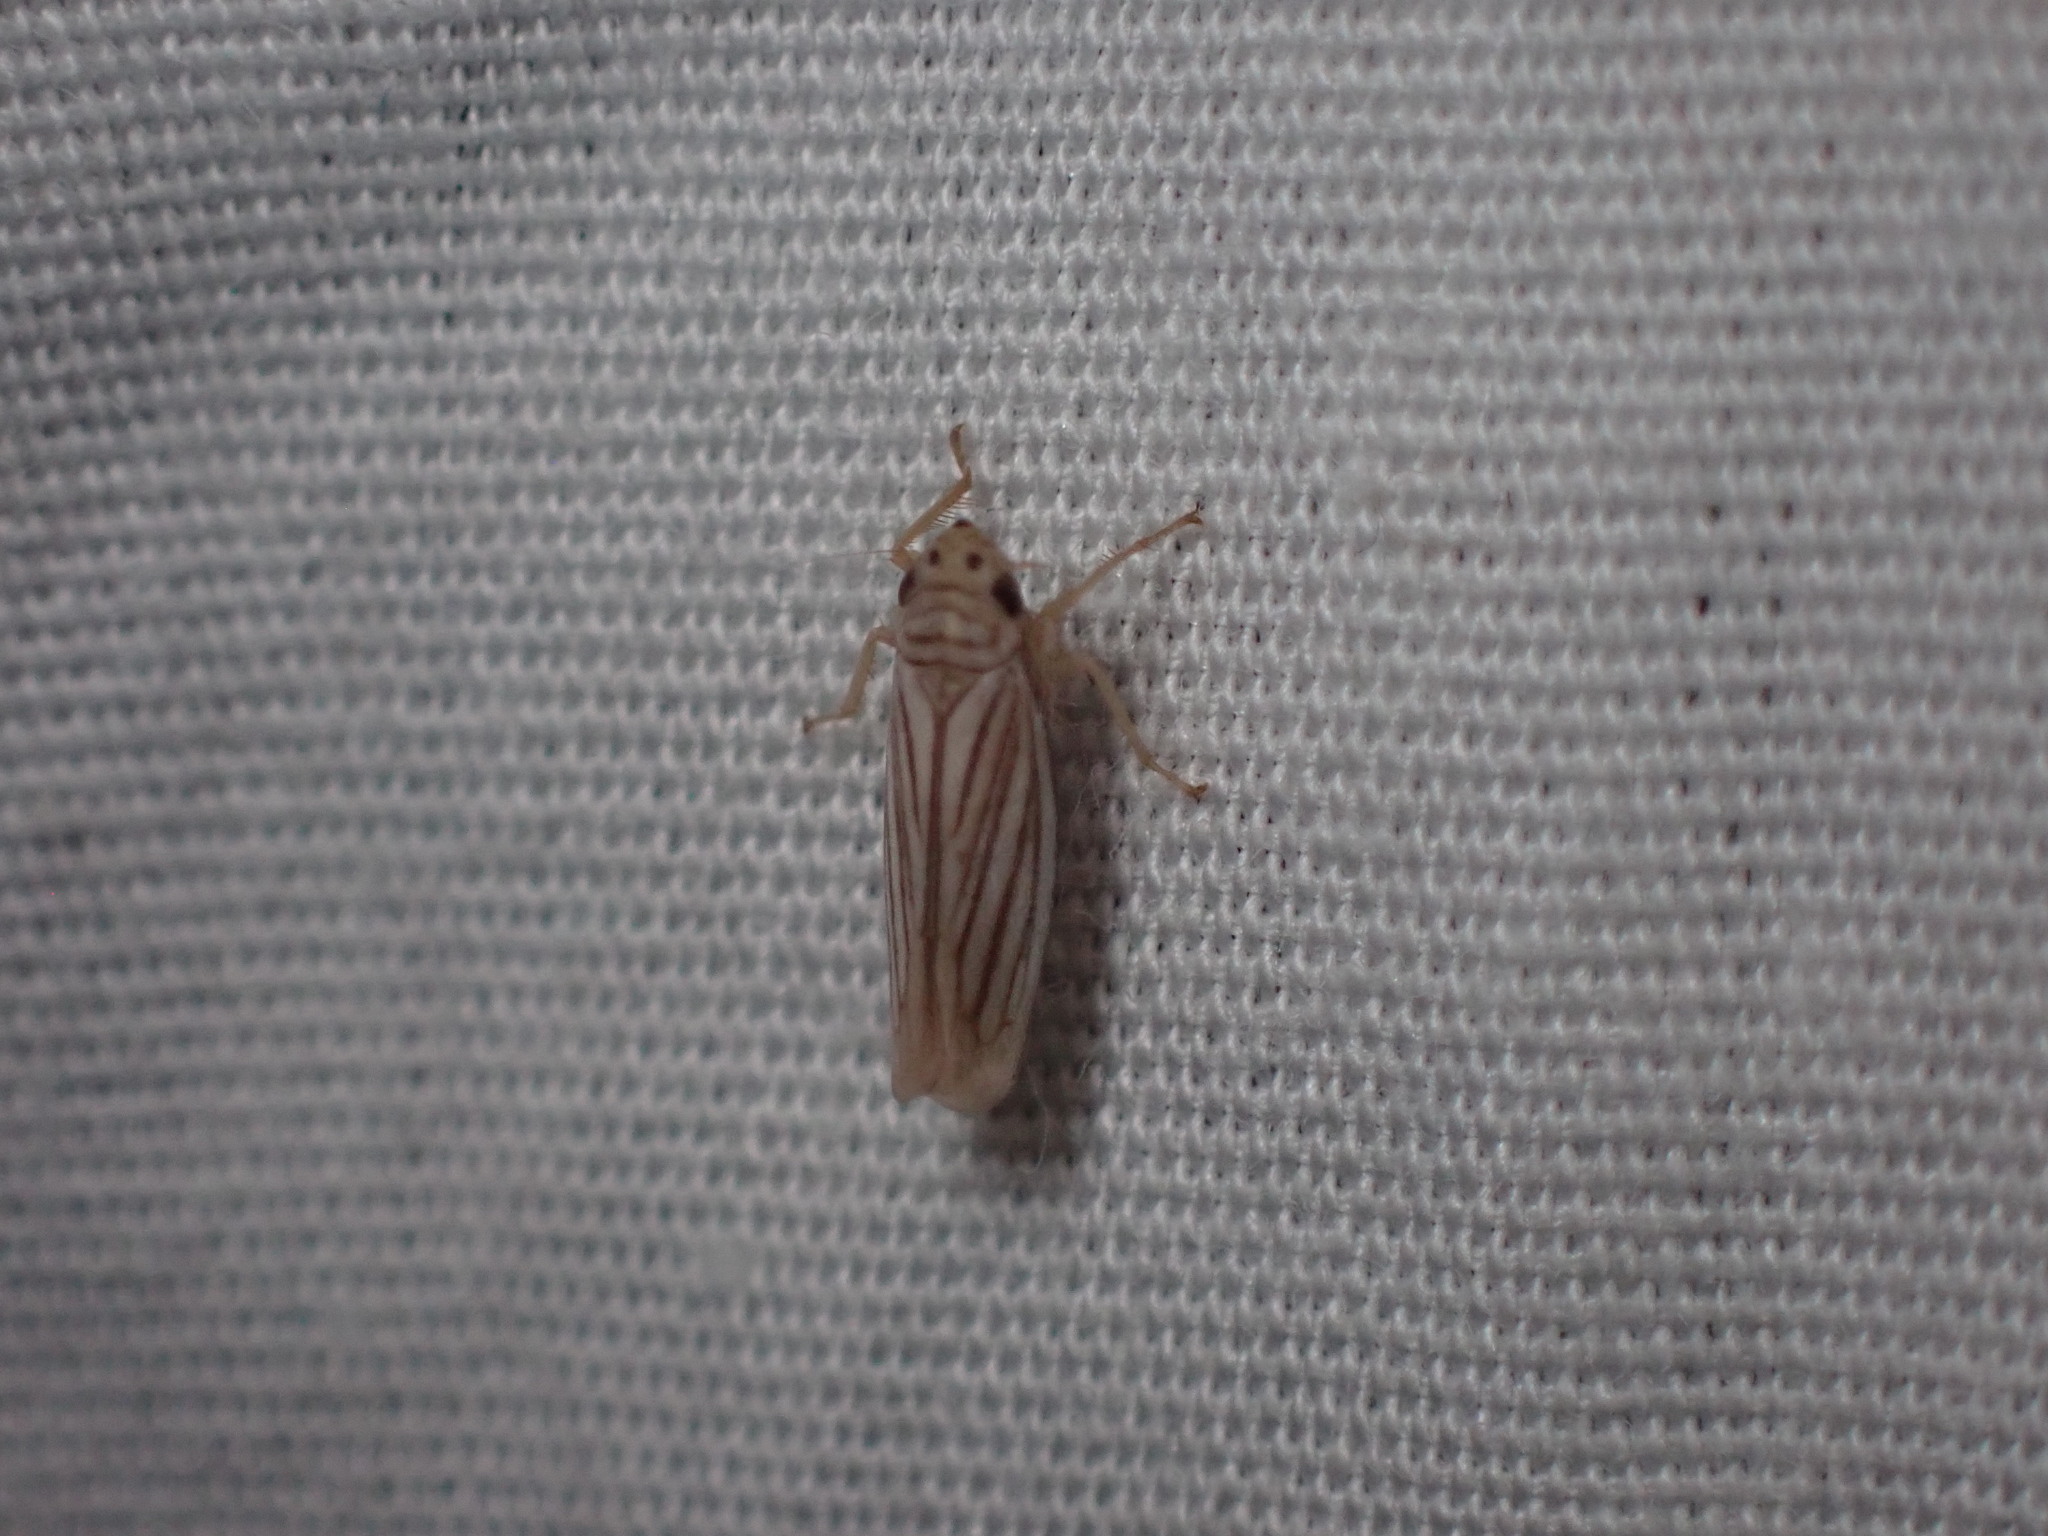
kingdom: Animalia
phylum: Arthropoda
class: Insecta
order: Hemiptera
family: Cicadellidae
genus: Provancherana
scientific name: Provancherana tripunctata
